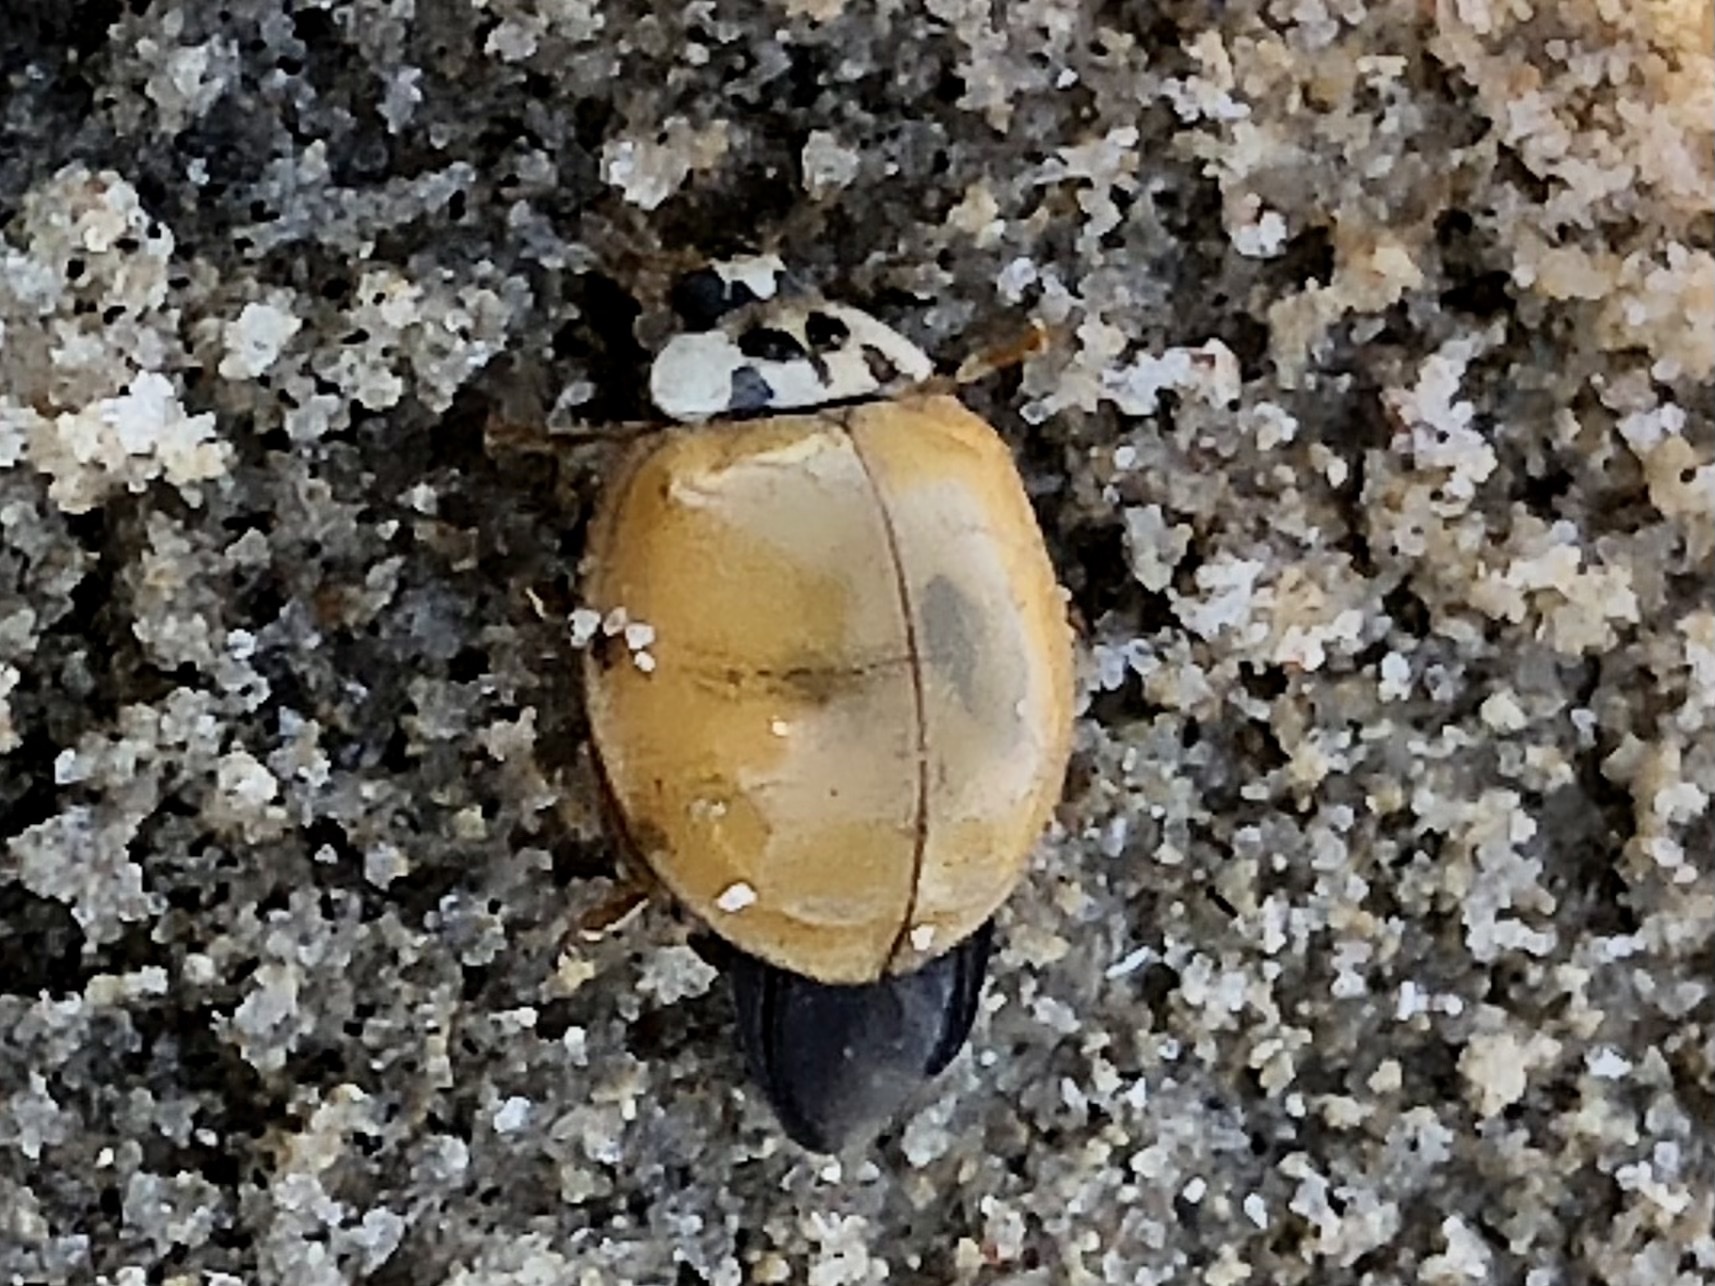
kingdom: Animalia
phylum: Arthropoda
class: Insecta
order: Coleoptera
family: Coccinellidae
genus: Harmonia
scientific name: Harmonia axyridis
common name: Harlequin ladybird
